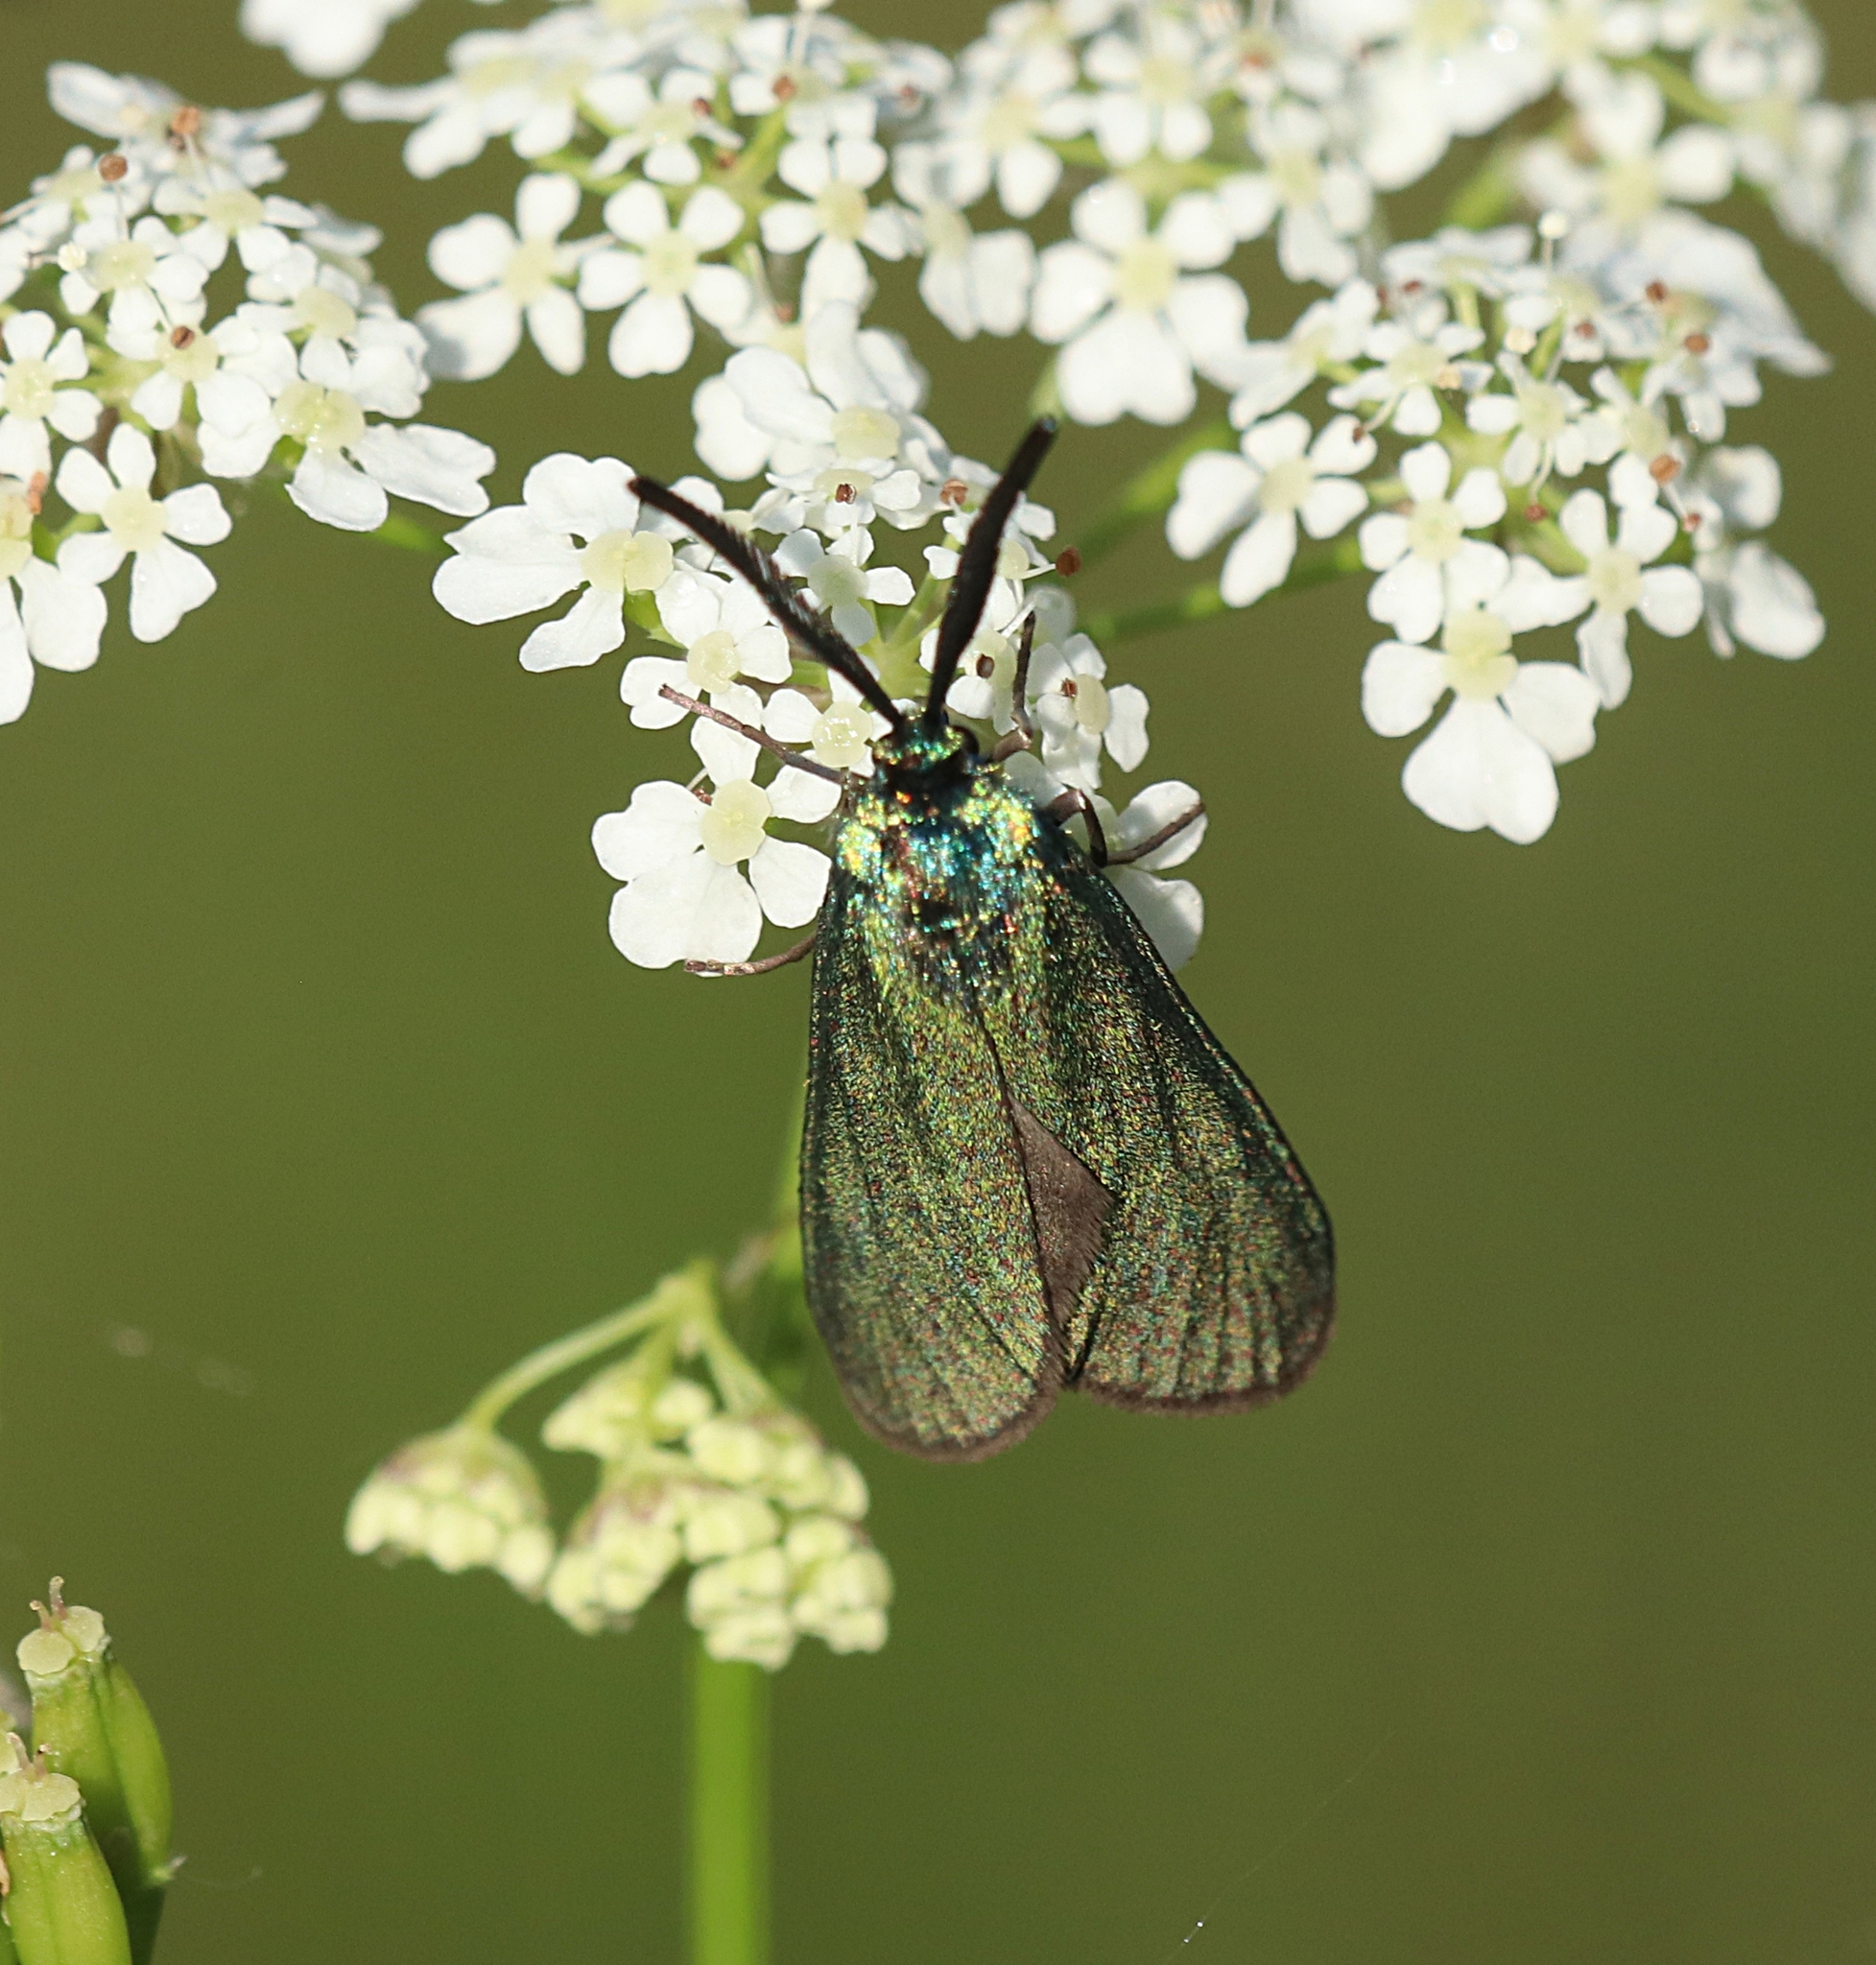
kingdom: Animalia
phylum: Arthropoda
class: Insecta
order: Lepidoptera
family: Zygaenidae
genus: Adscita
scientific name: Adscita statices
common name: Forester
